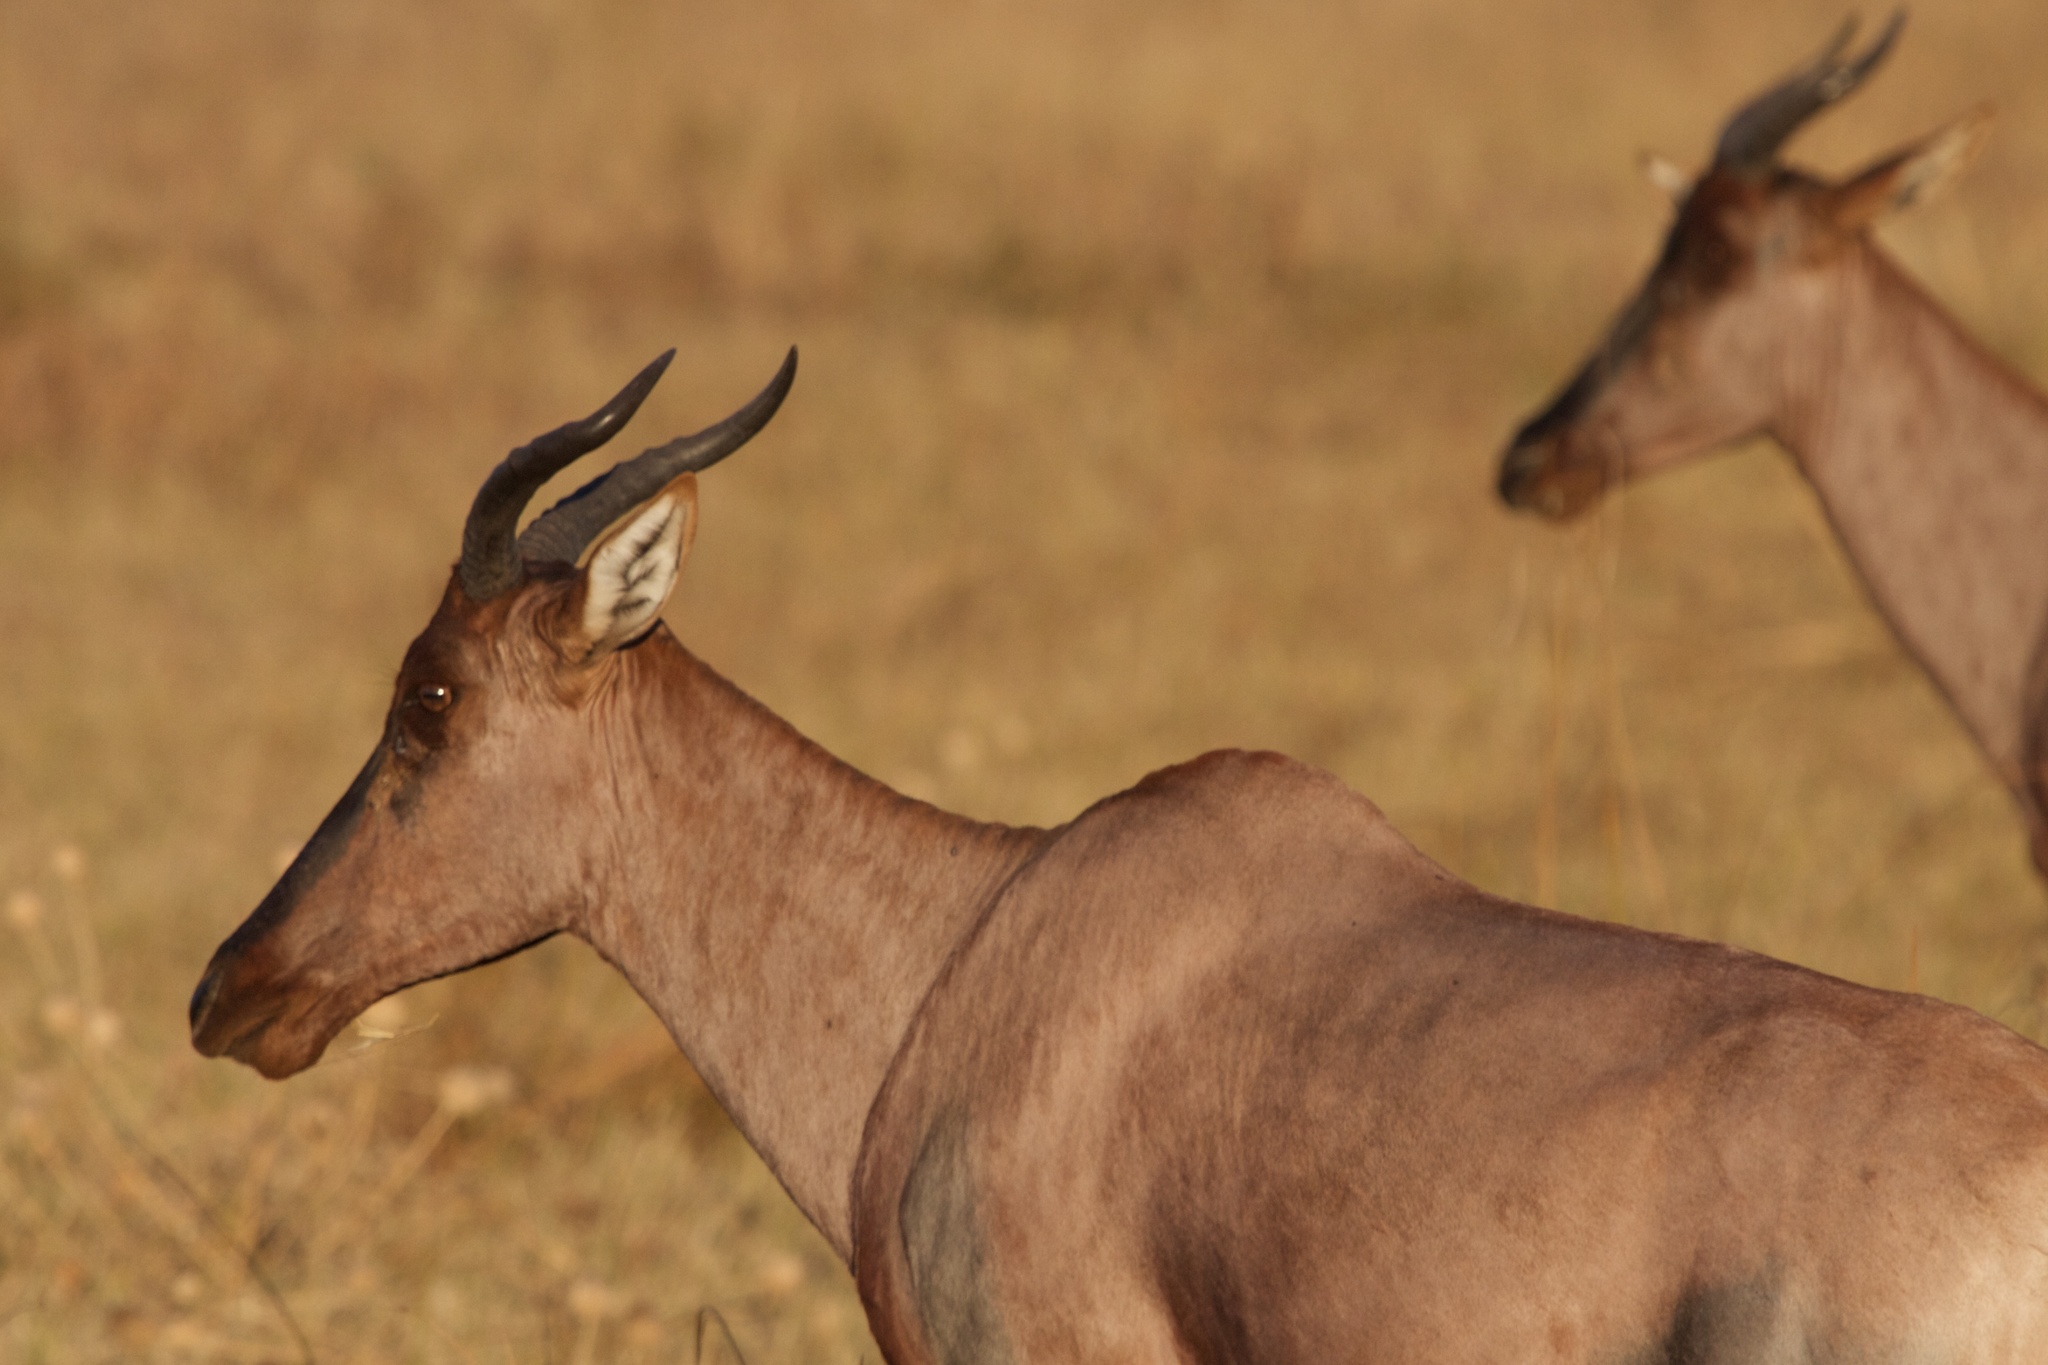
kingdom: Animalia
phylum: Chordata
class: Mammalia
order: Artiodactyla
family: Bovidae
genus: Damaliscus
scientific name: Damaliscus lunatus
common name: Common tsessebe
